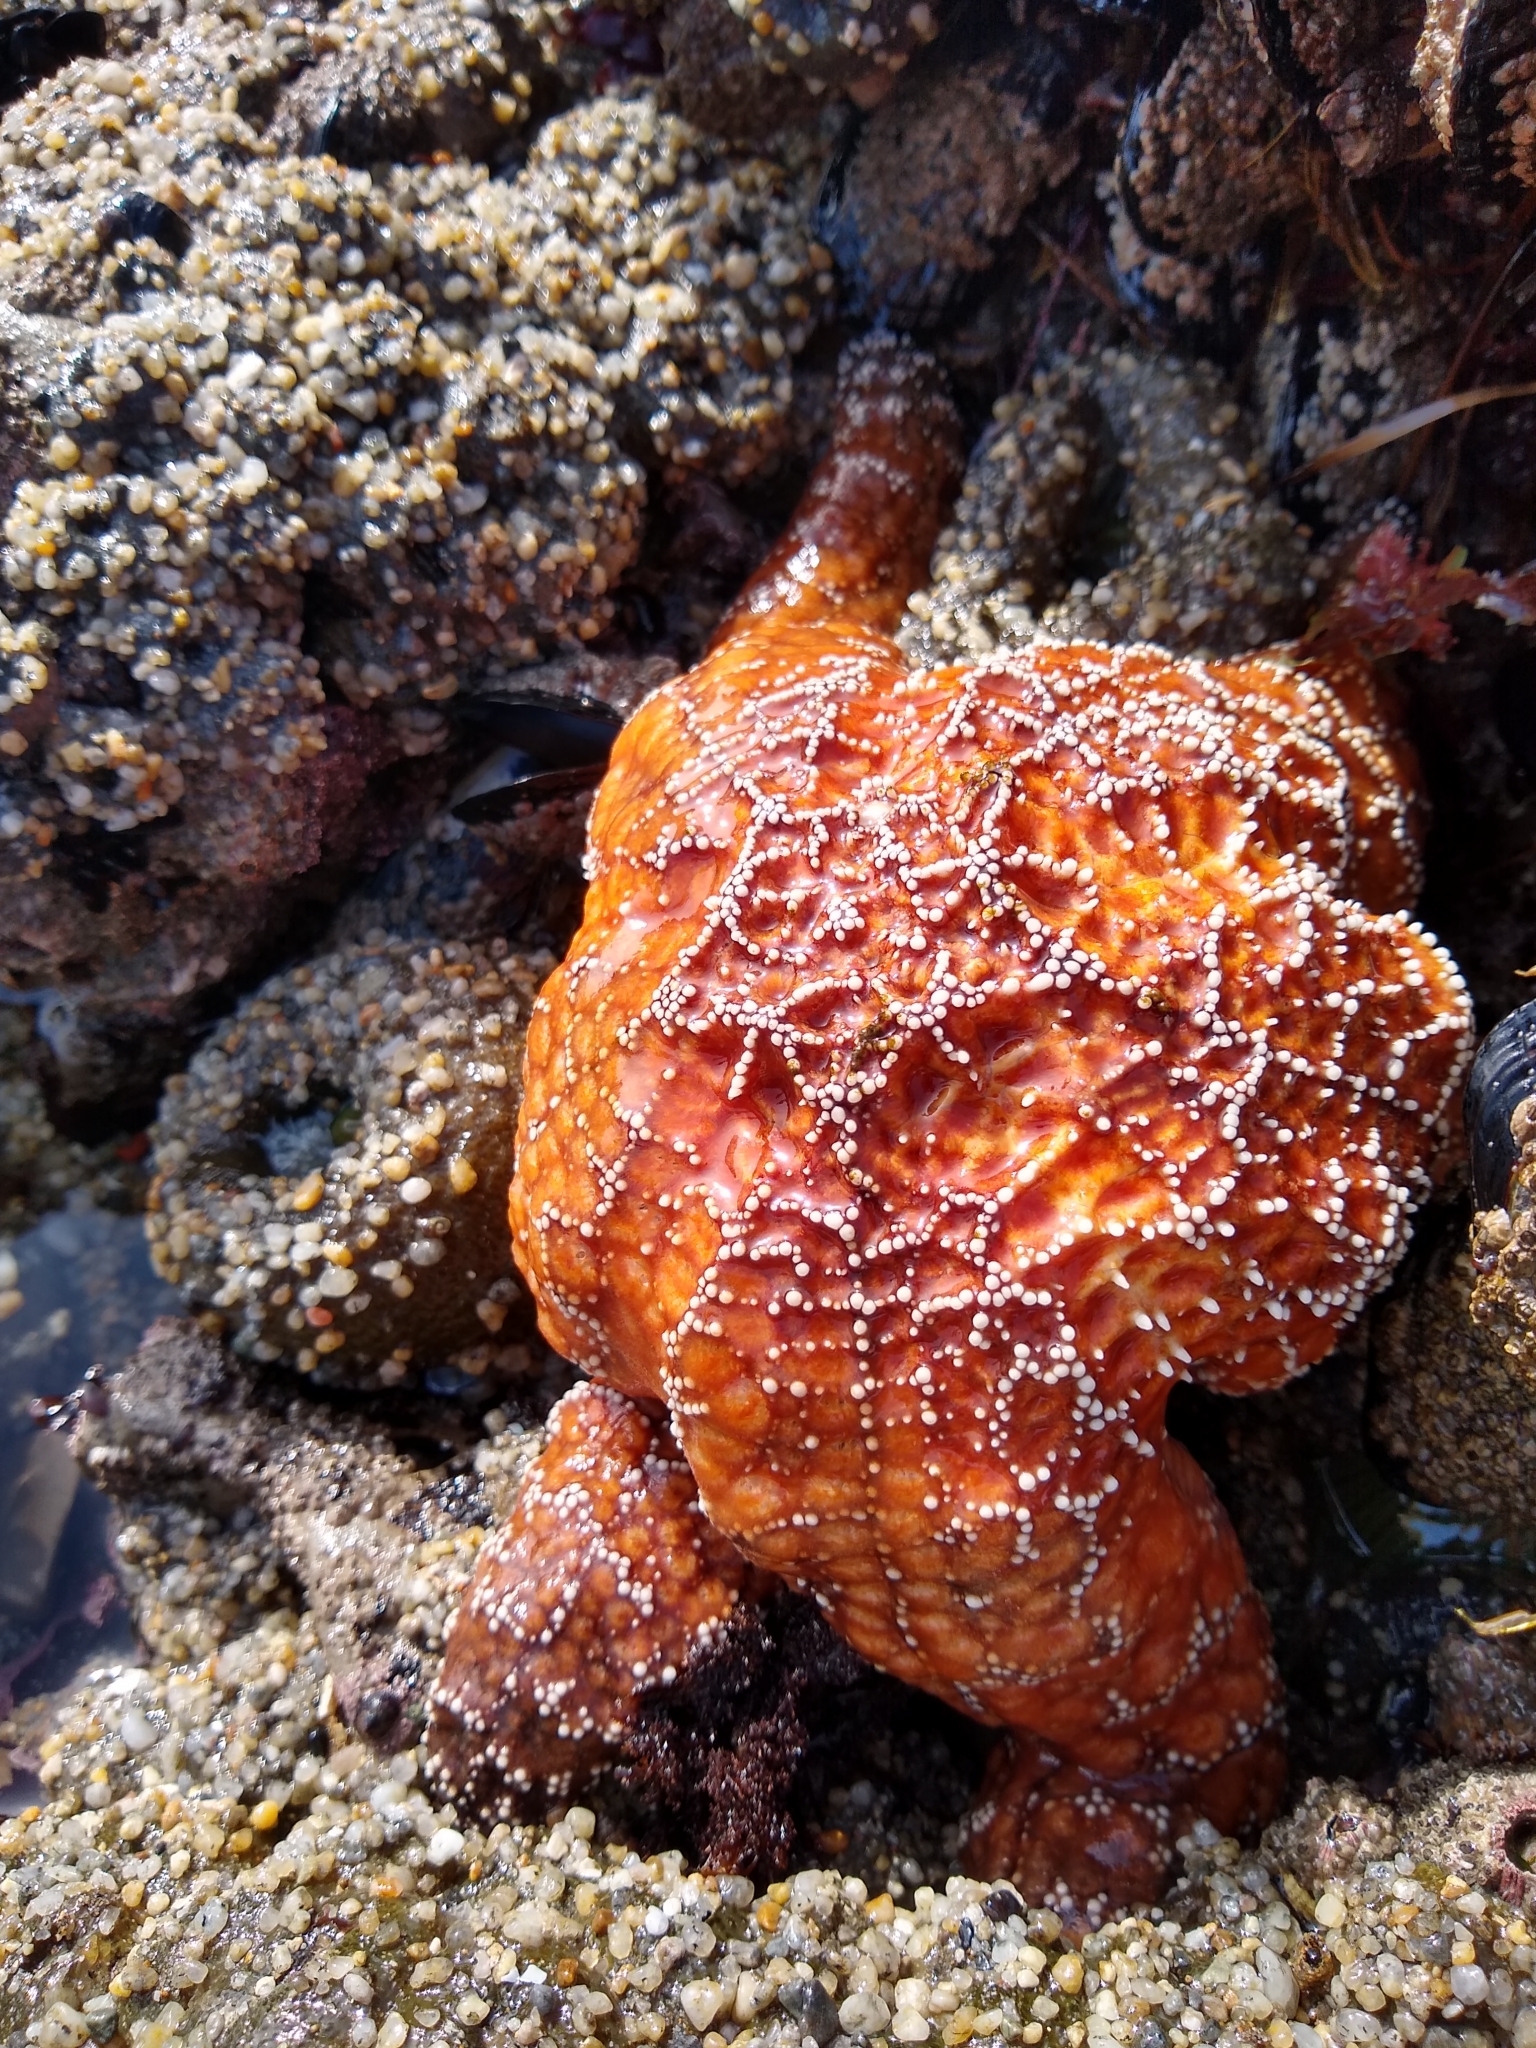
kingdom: Animalia
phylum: Echinodermata
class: Asteroidea
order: Forcipulatida
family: Asteriidae
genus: Pisaster
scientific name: Pisaster ochraceus
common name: Ochre stars
